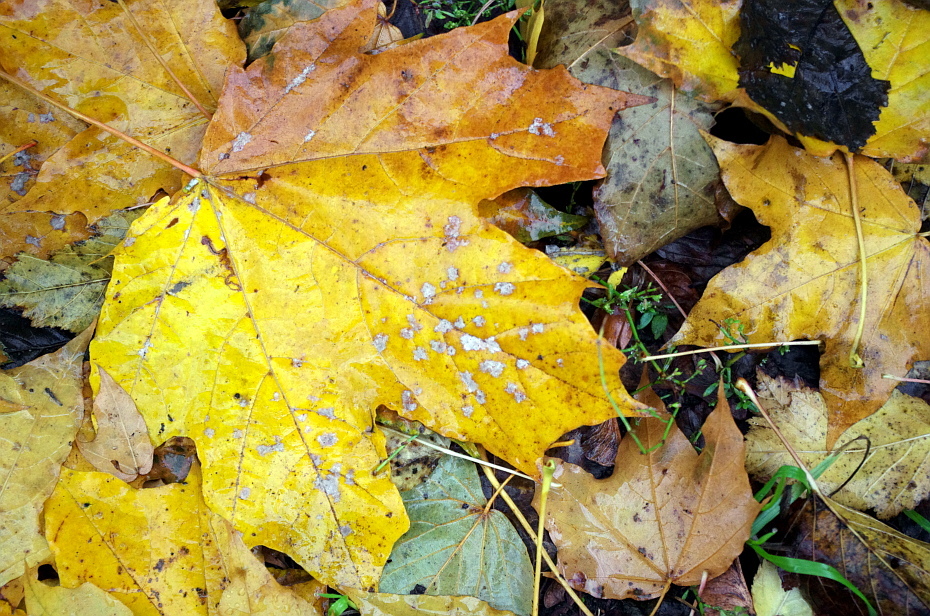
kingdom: Fungi
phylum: Ascomycota
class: Leotiomycetes
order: Helotiales
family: Erysiphaceae
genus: Sawadaea
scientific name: Sawadaea tulasnei
